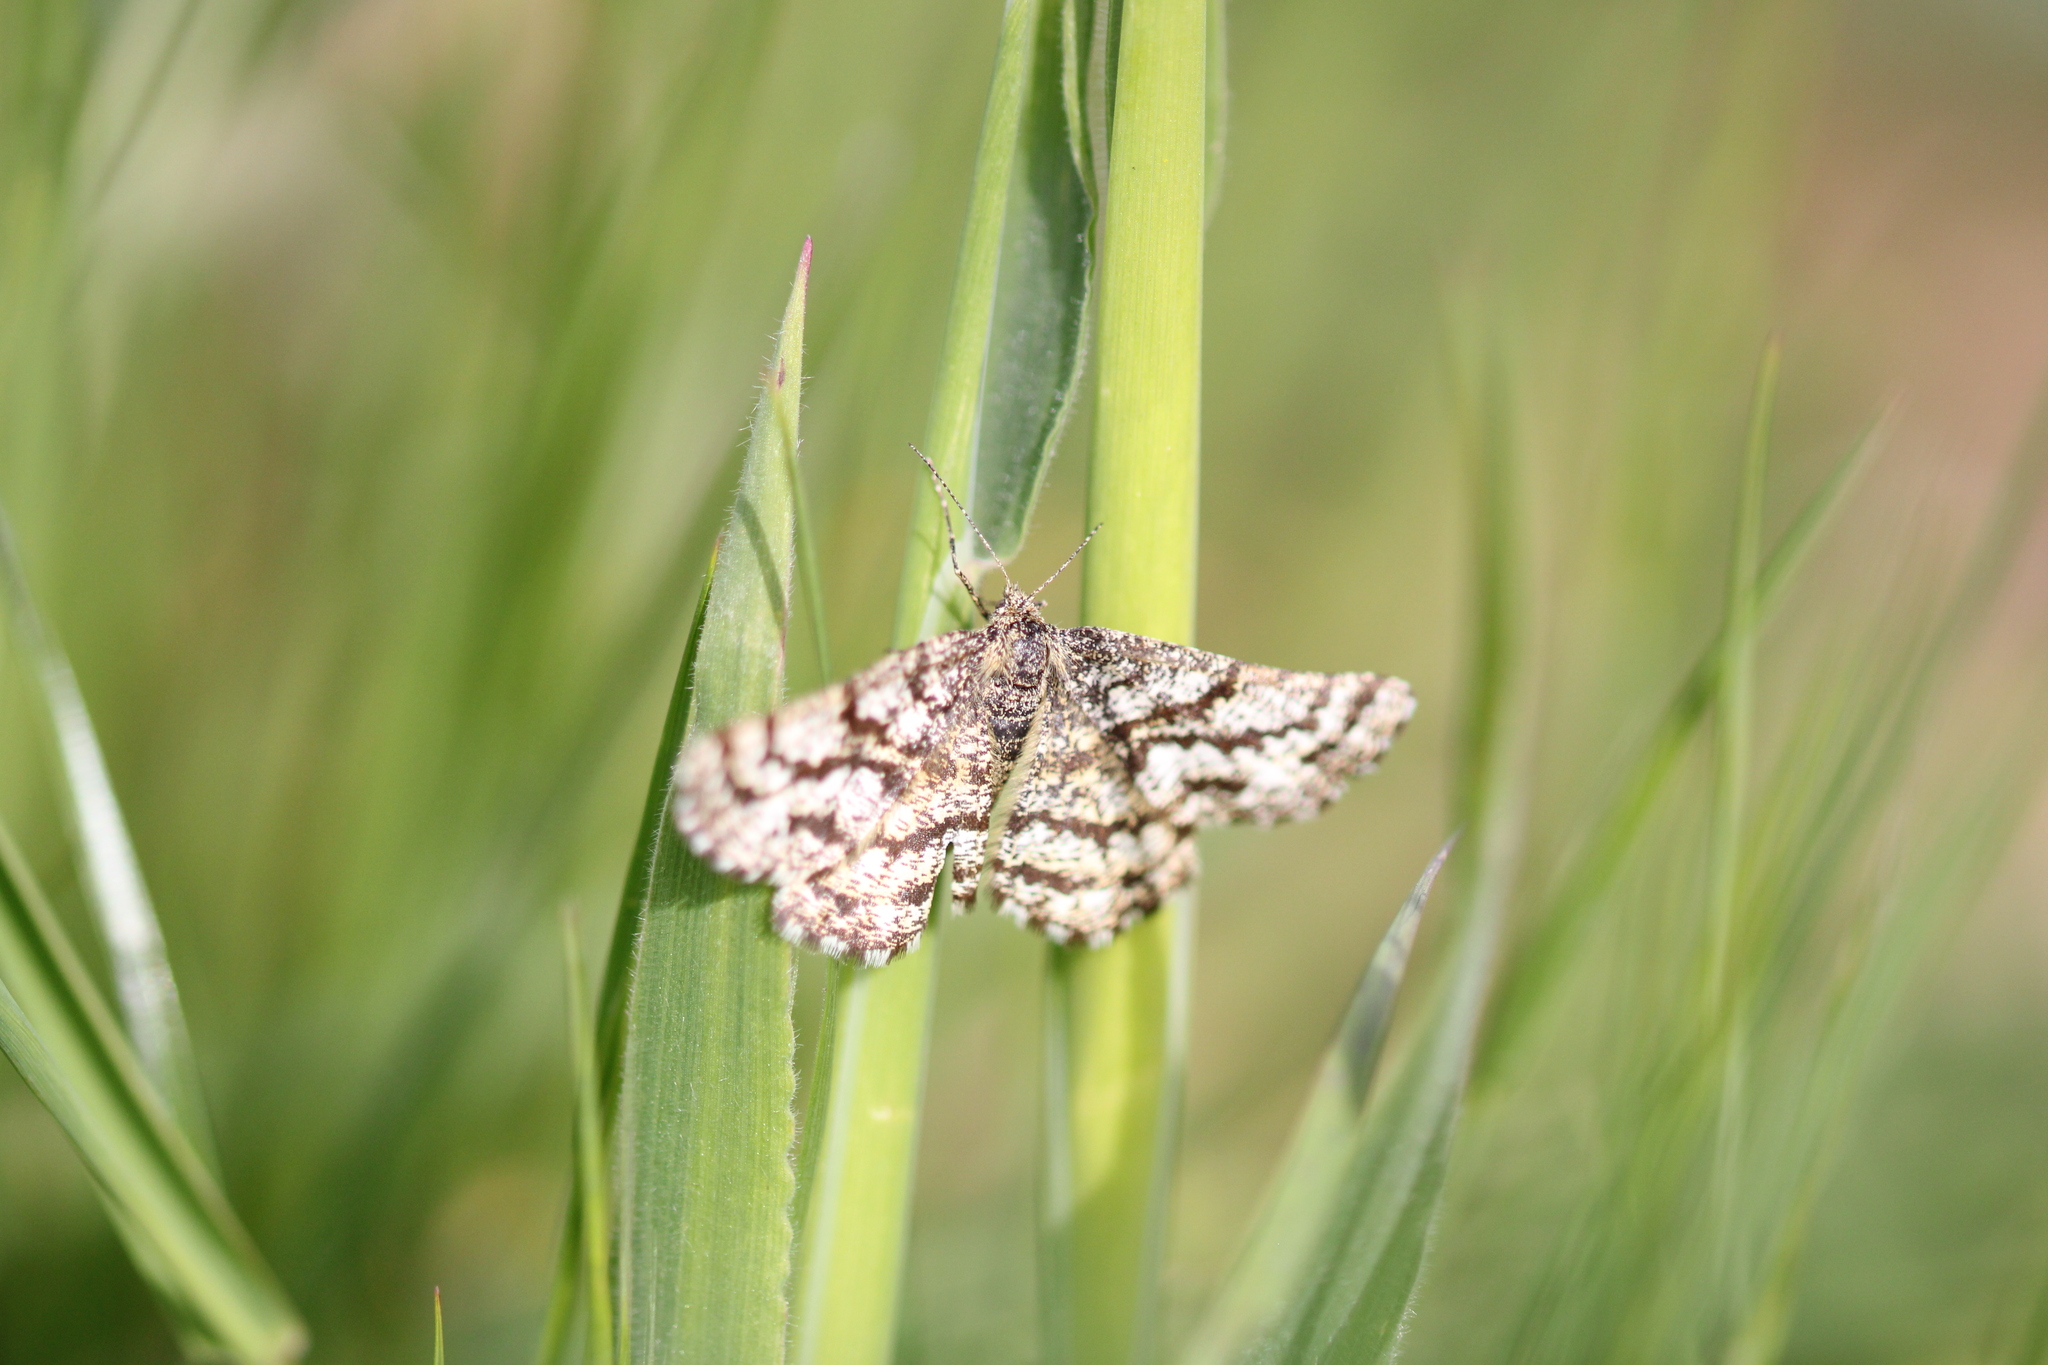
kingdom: Animalia
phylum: Arthropoda
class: Insecta
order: Lepidoptera
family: Geometridae
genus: Ematurga
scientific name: Ematurga atomaria
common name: Common heath
